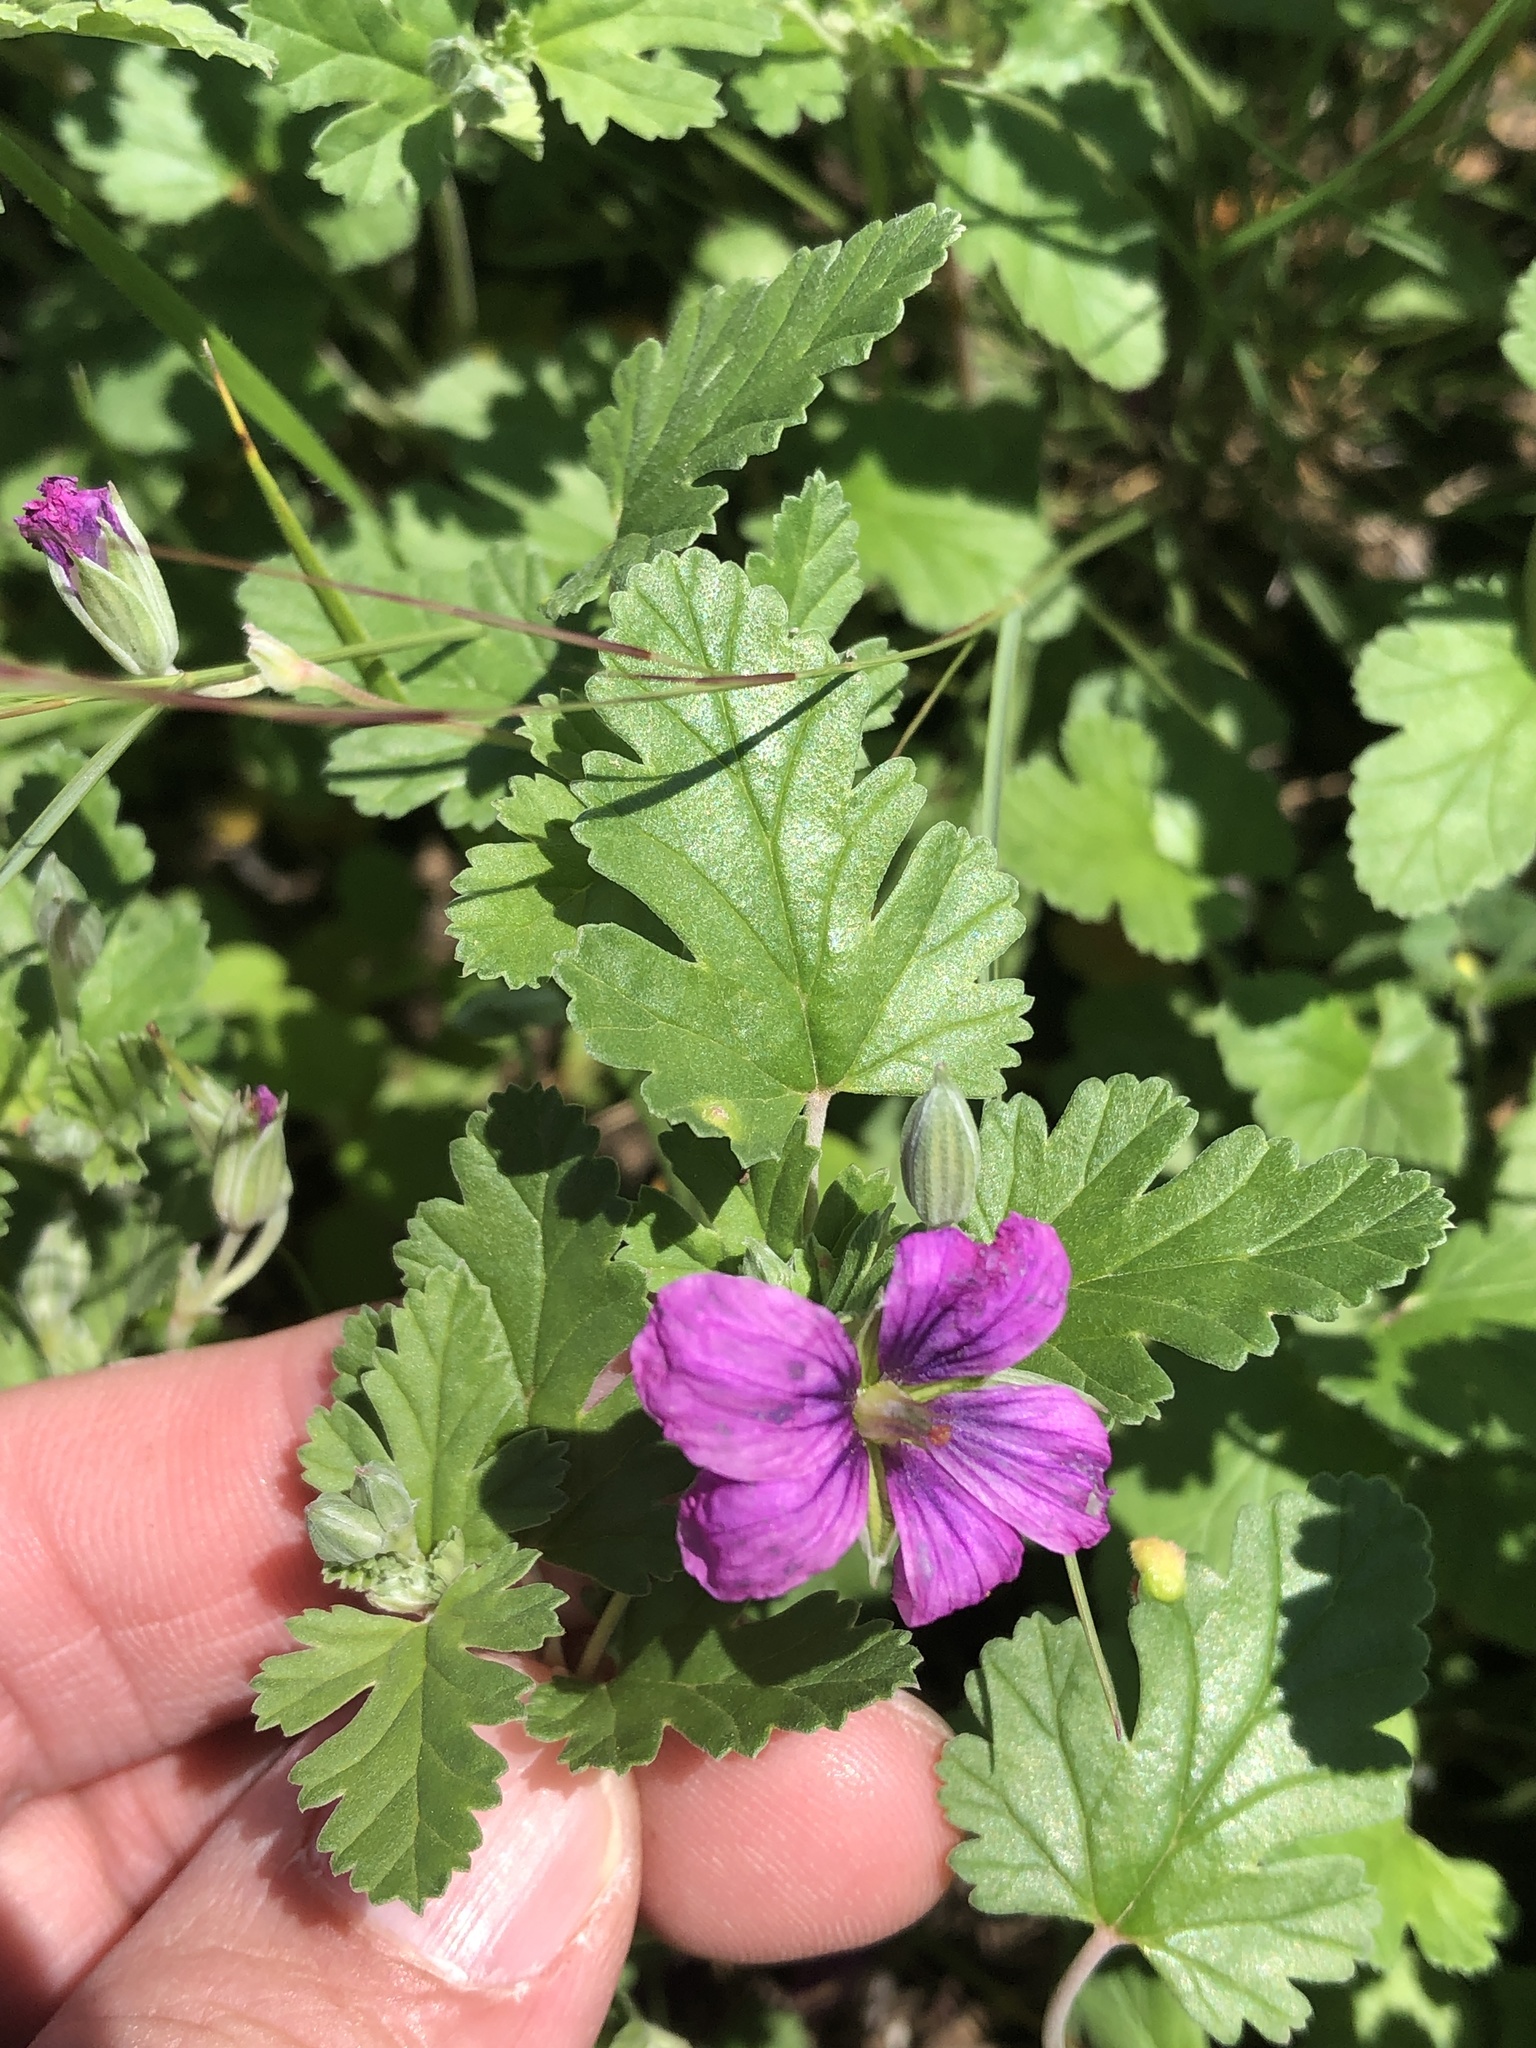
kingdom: Plantae
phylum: Tracheophyta
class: Magnoliopsida
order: Geraniales
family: Geraniaceae
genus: Erodium
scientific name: Erodium texanum
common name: Texas stork's-bill
